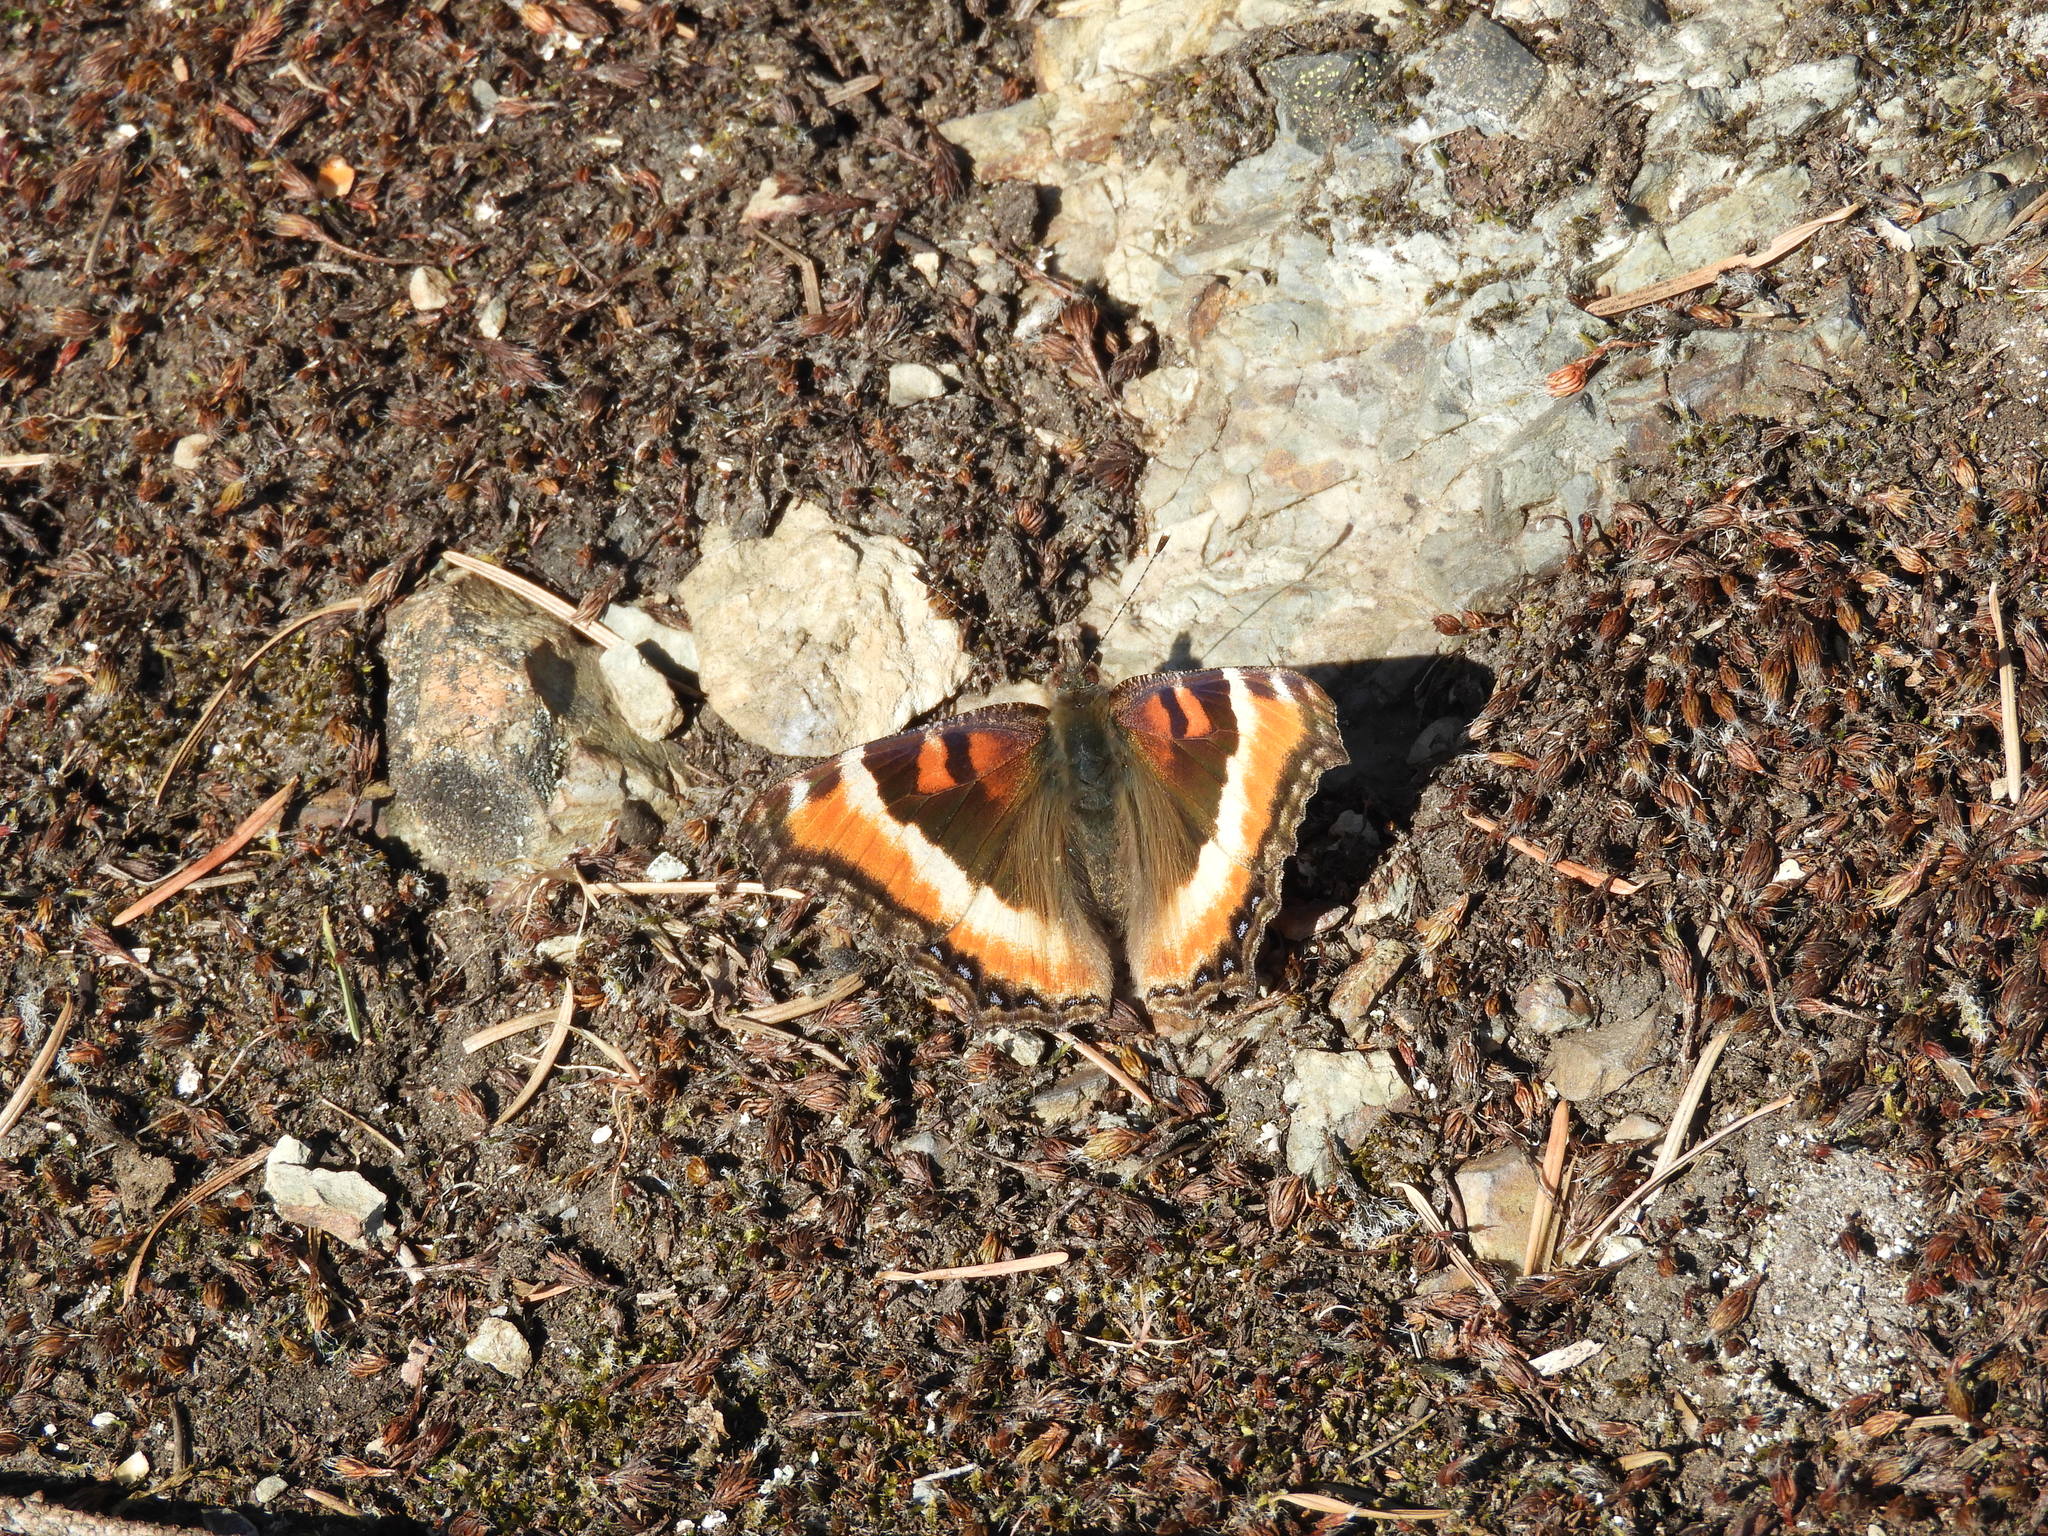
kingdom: Animalia
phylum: Arthropoda
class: Insecta
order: Lepidoptera
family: Nymphalidae
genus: Aglais
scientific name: Aglais milberti
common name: Milbert's tortoiseshell
